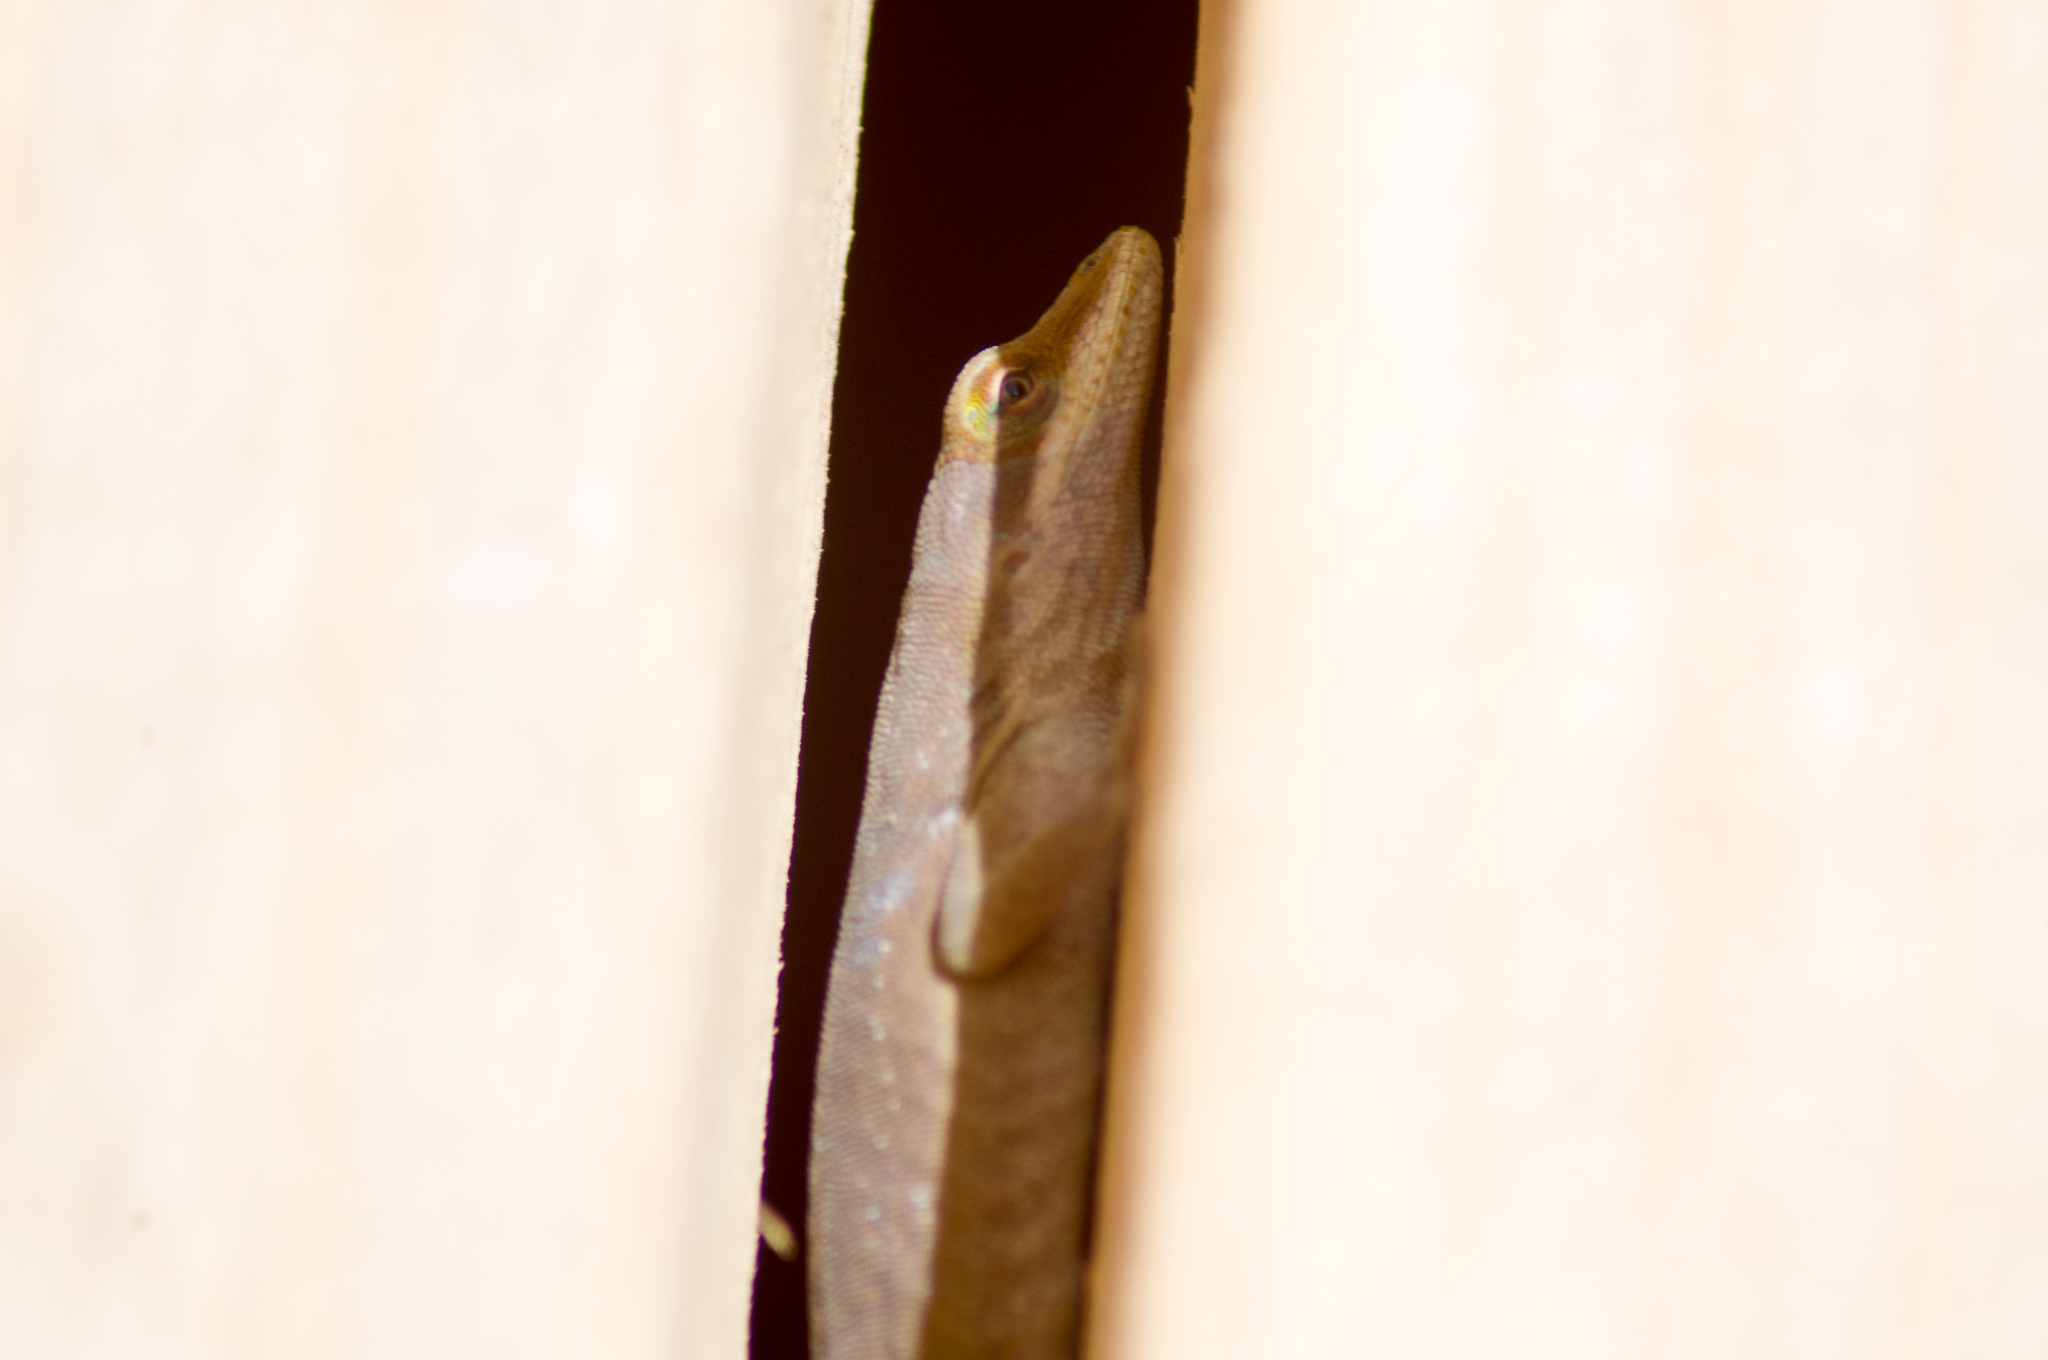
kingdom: Animalia
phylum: Chordata
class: Squamata
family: Dactyloidae
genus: Anolis
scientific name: Anolis carolinensis
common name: Green anole
